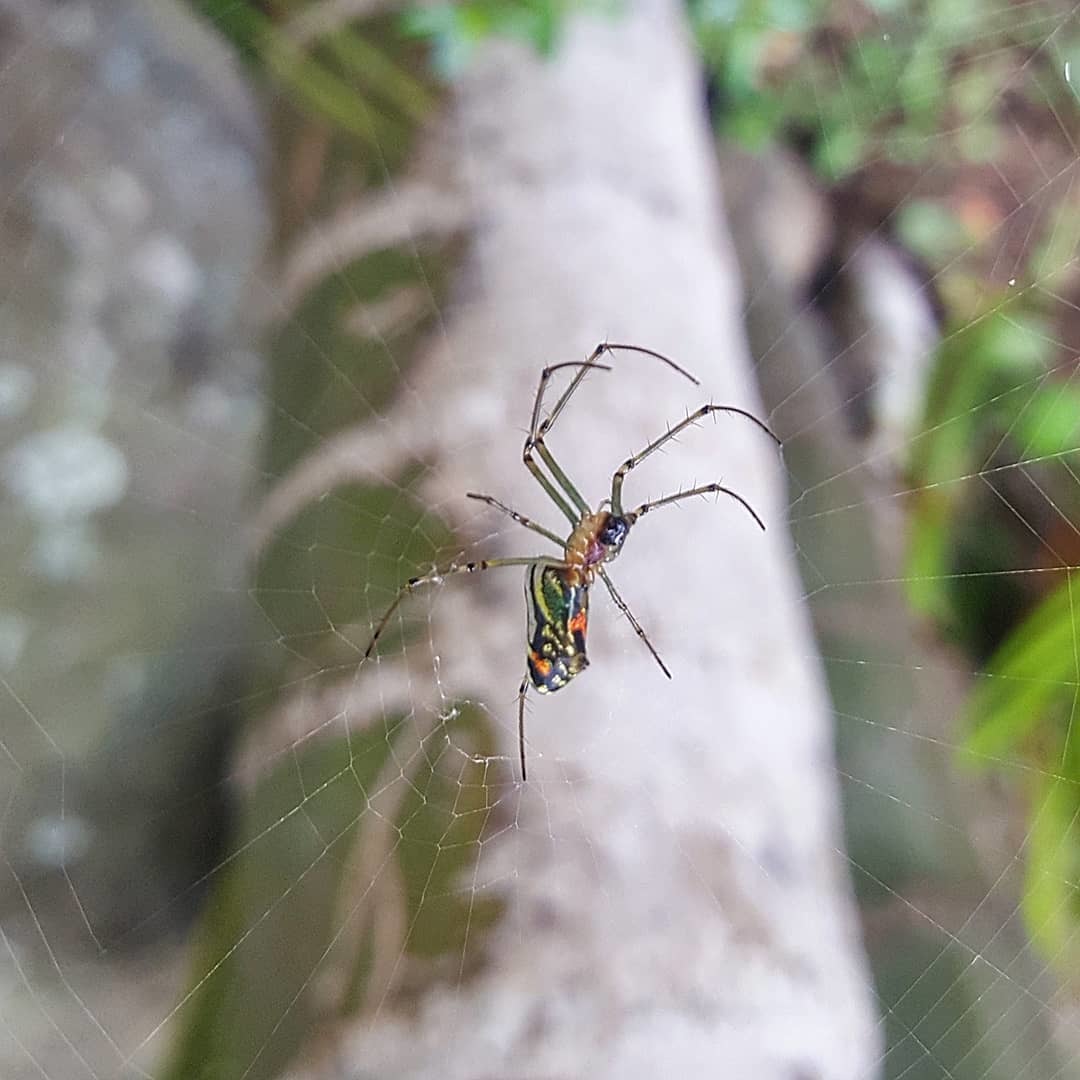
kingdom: Animalia
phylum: Arthropoda
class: Arachnida
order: Araneae
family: Tetragnathidae
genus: Leucauge
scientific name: Leucauge argyrobapta
